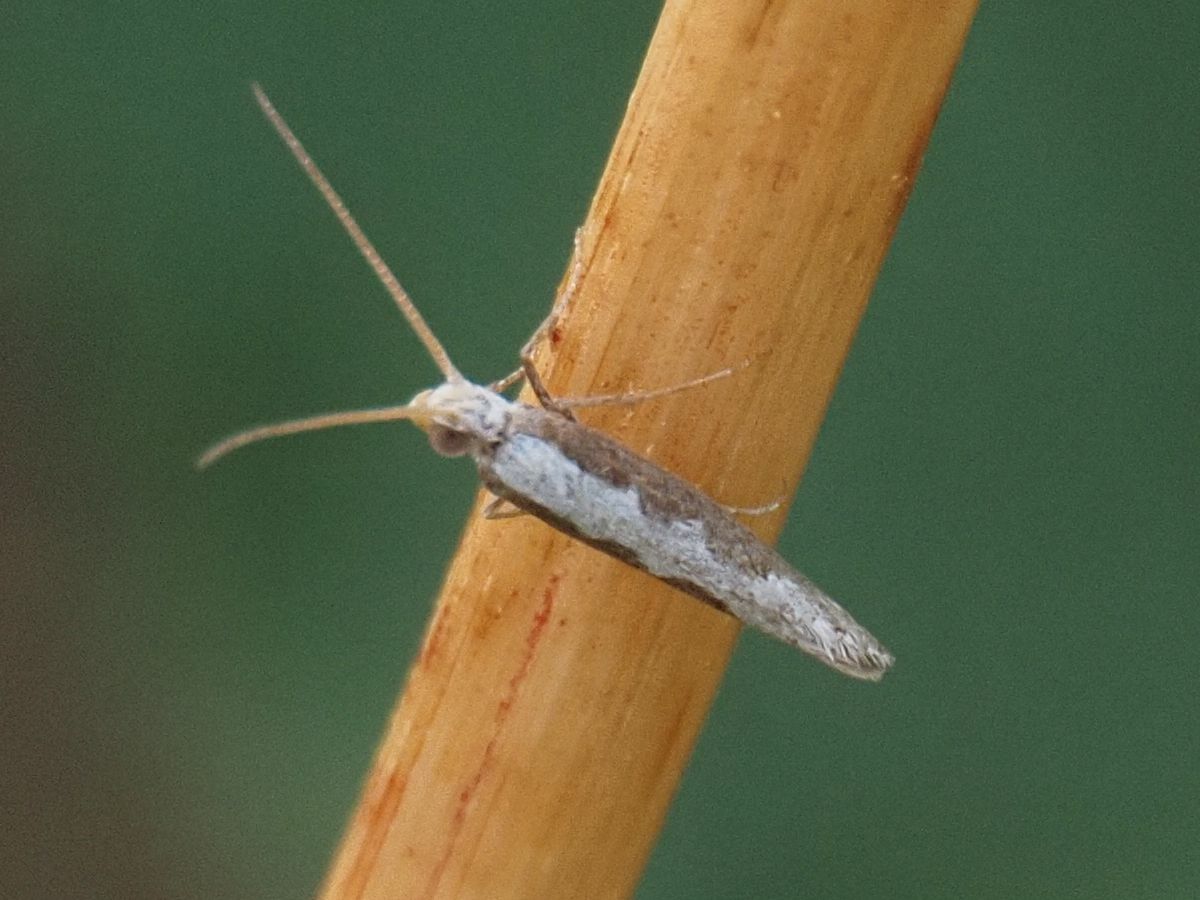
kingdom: Animalia
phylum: Arthropoda
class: Insecta
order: Lepidoptera
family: Plutellidae
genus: Plutella
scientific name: Plutella xylostella
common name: Diamond-back moth
